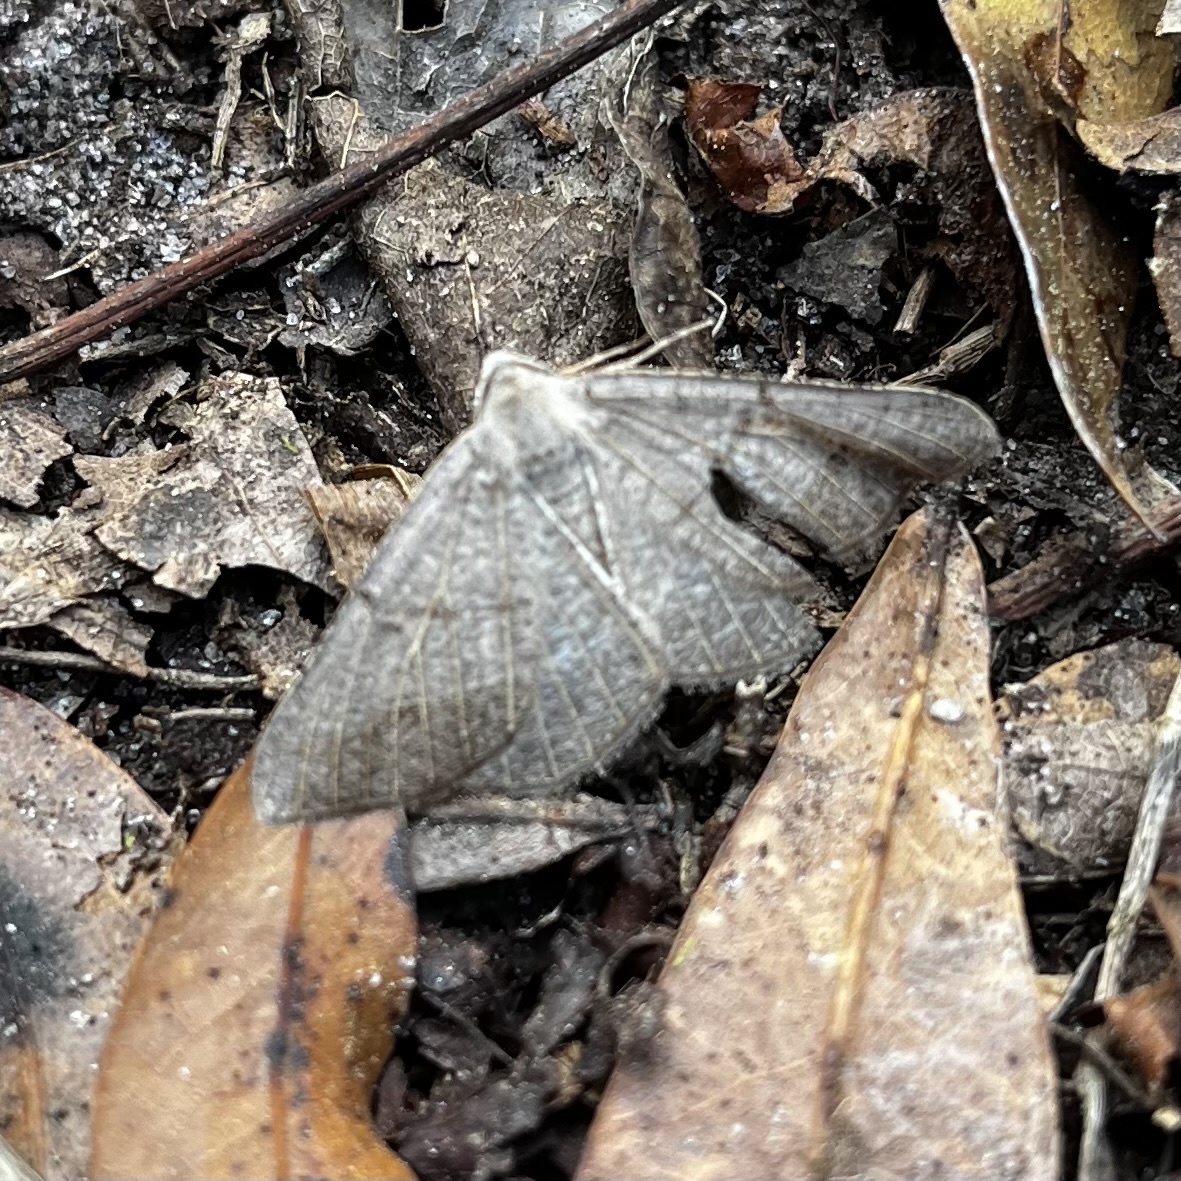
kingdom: Animalia
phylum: Arthropoda
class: Insecta
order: Lepidoptera
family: Geometridae
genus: Isturgia
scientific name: Isturgia dislocaria
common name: Pale-viened enconista
